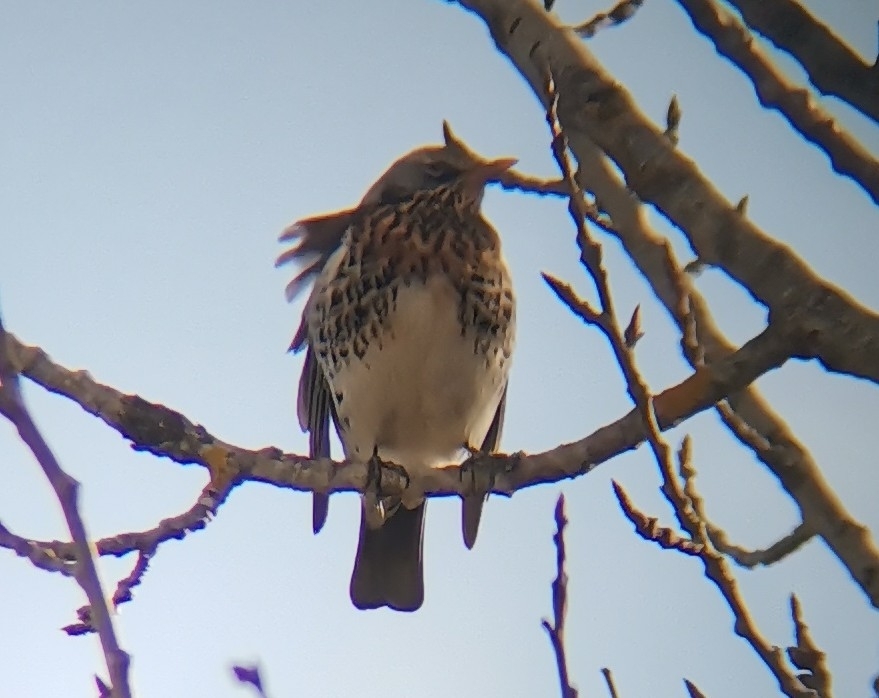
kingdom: Animalia
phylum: Chordata
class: Aves
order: Passeriformes
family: Turdidae
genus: Turdus
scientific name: Turdus pilaris
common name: Fieldfare
